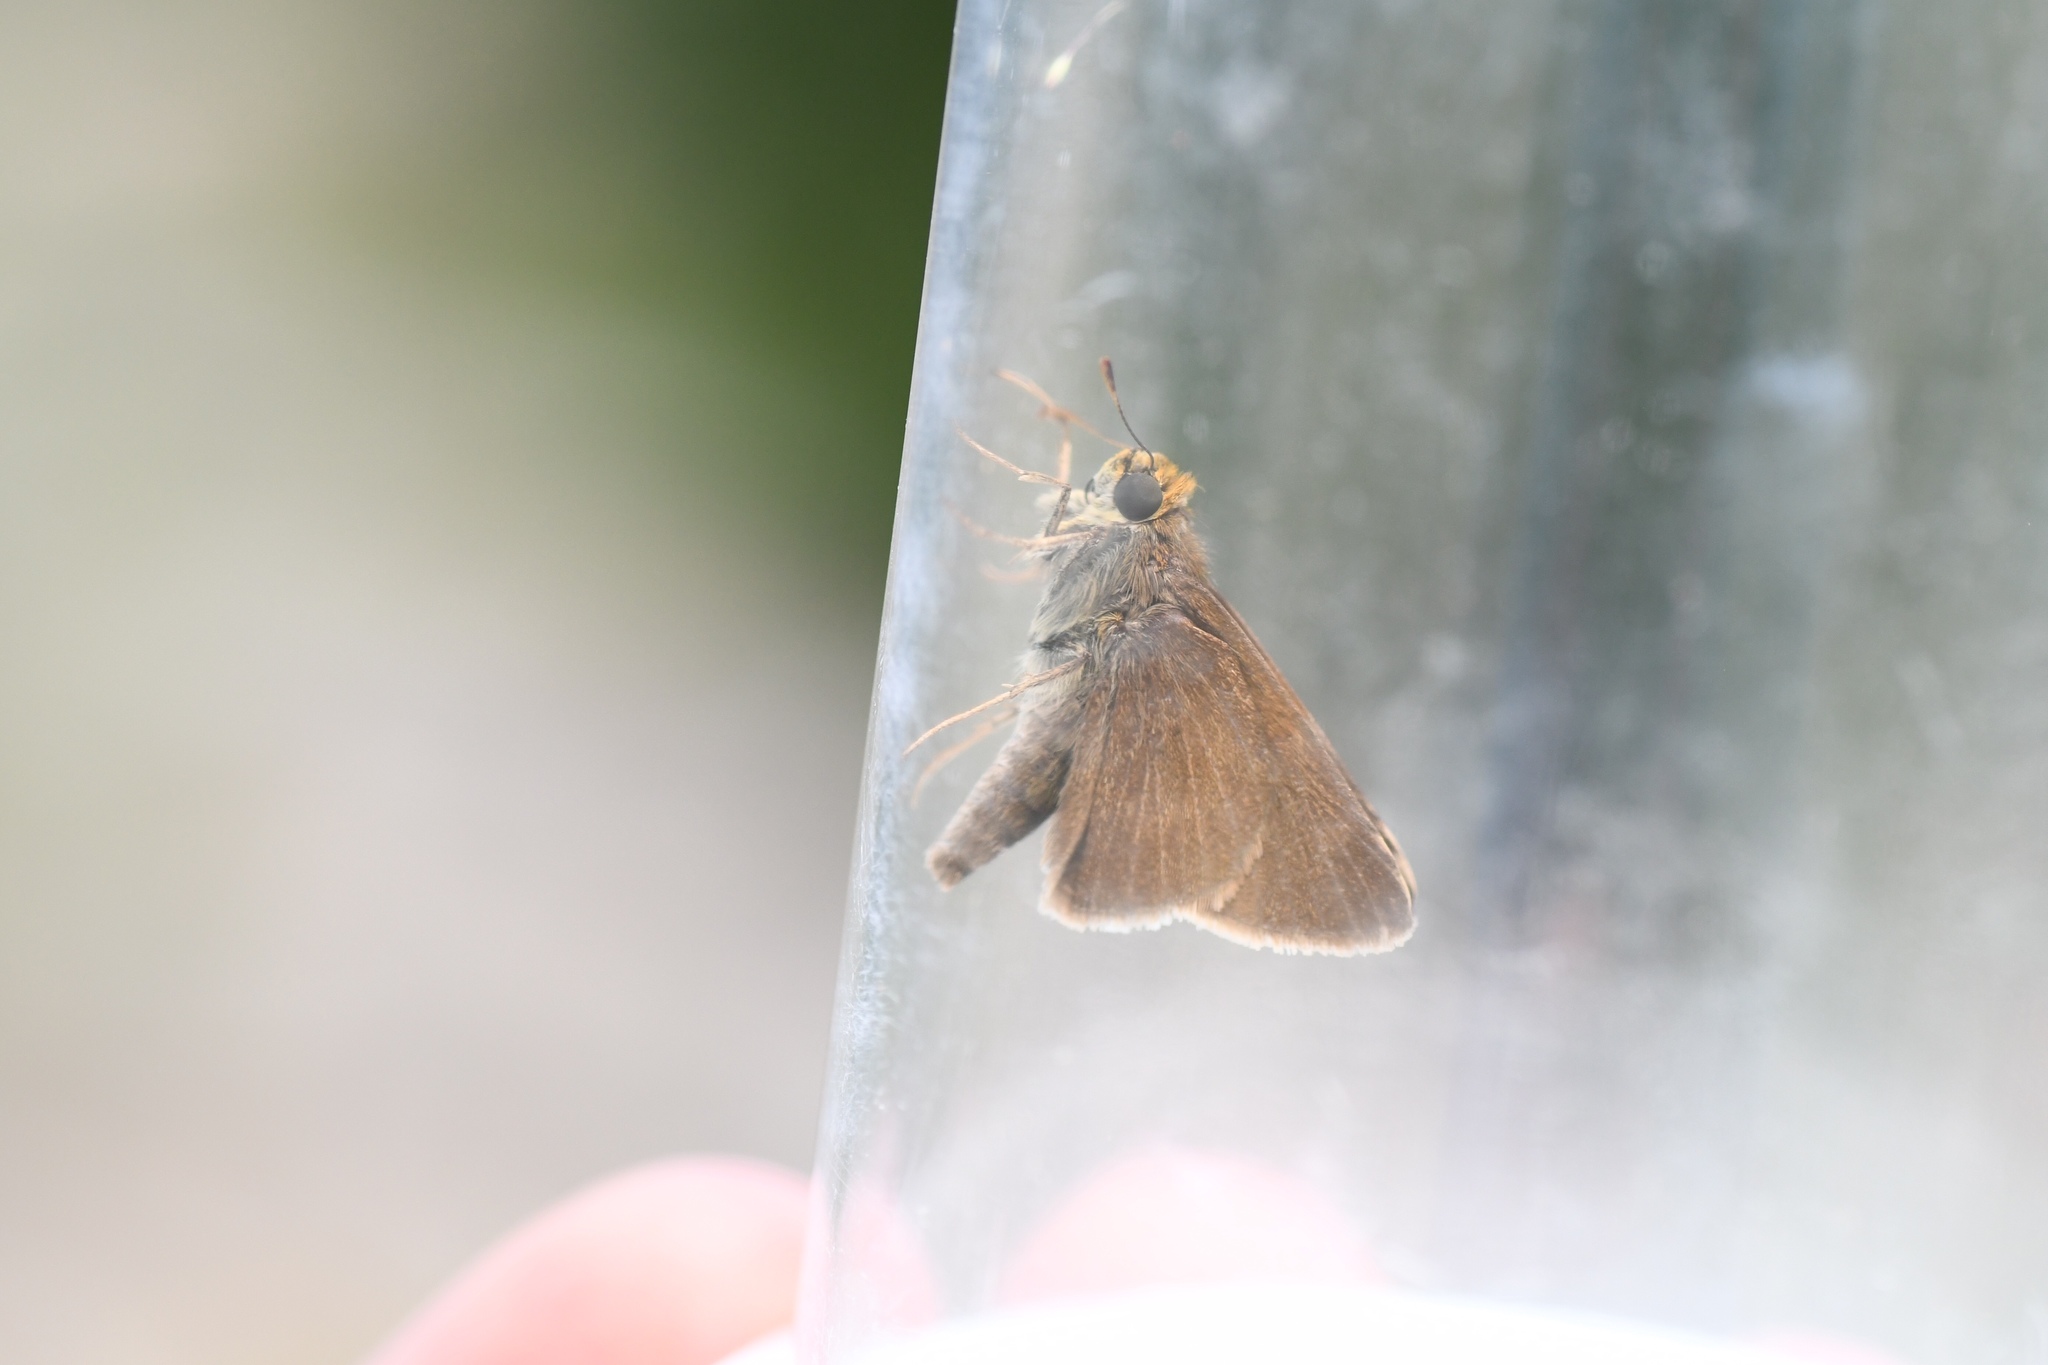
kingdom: Animalia
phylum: Arthropoda
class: Insecta
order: Lepidoptera
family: Hesperiidae
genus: Euphyes
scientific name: Euphyes vestris
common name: Dun skipper
